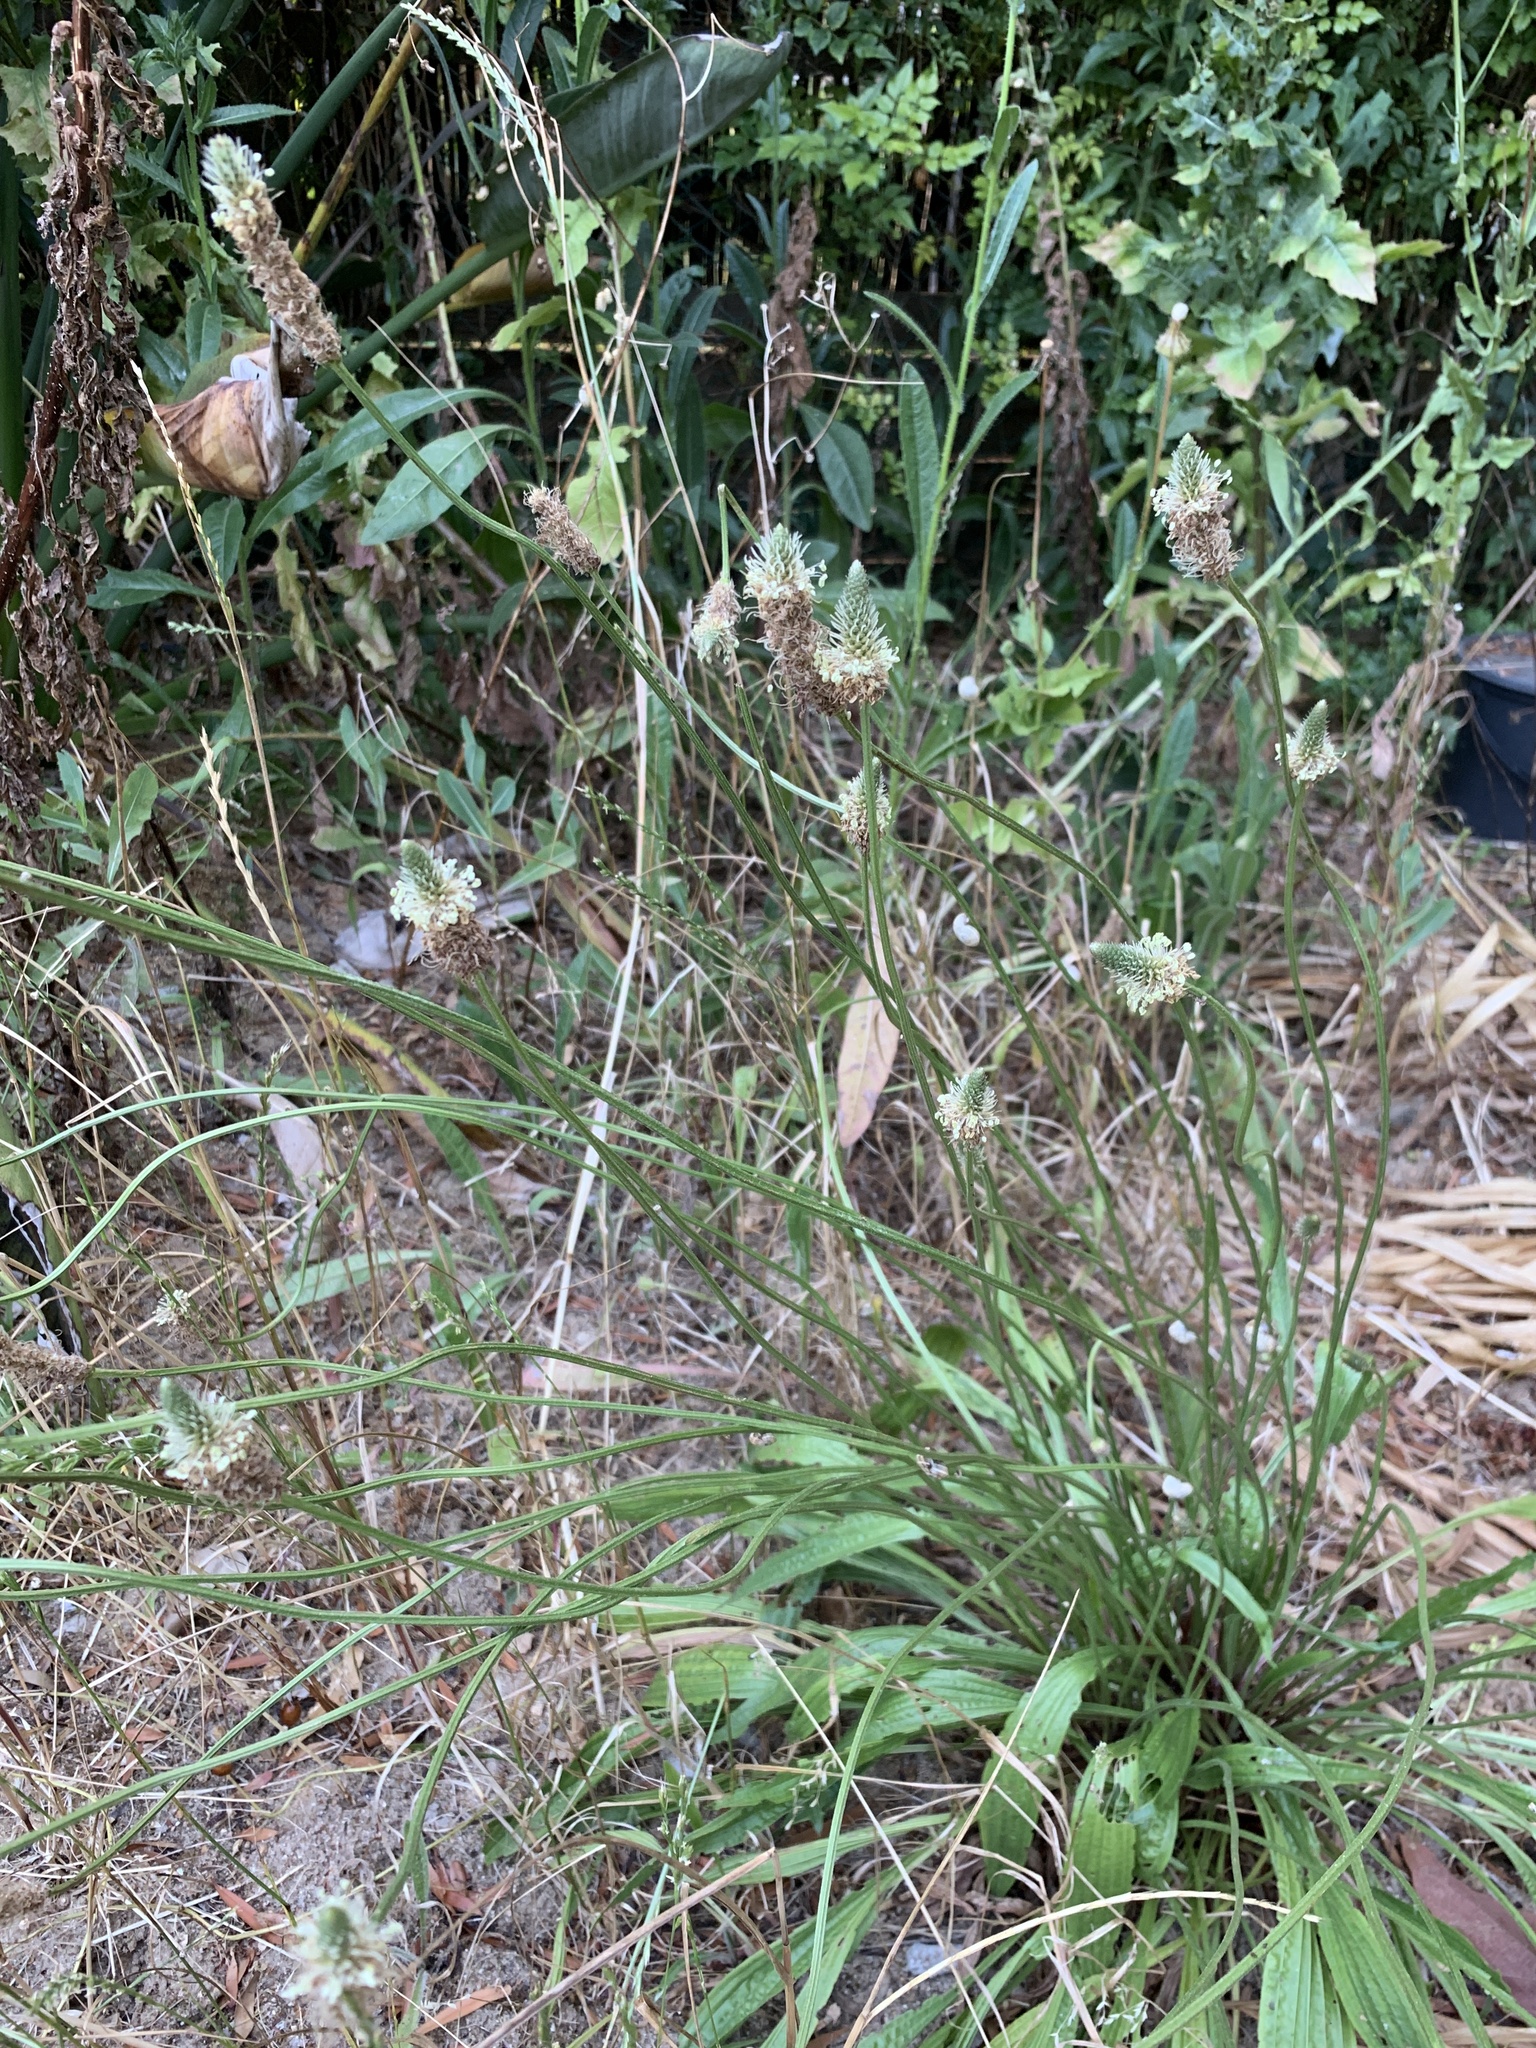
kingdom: Plantae
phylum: Tracheophyta
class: Magnoliopsida
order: Lamiales
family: Plantaginaceae
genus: Plantago
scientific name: Plantago lanceolata
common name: Ribwort plantain
